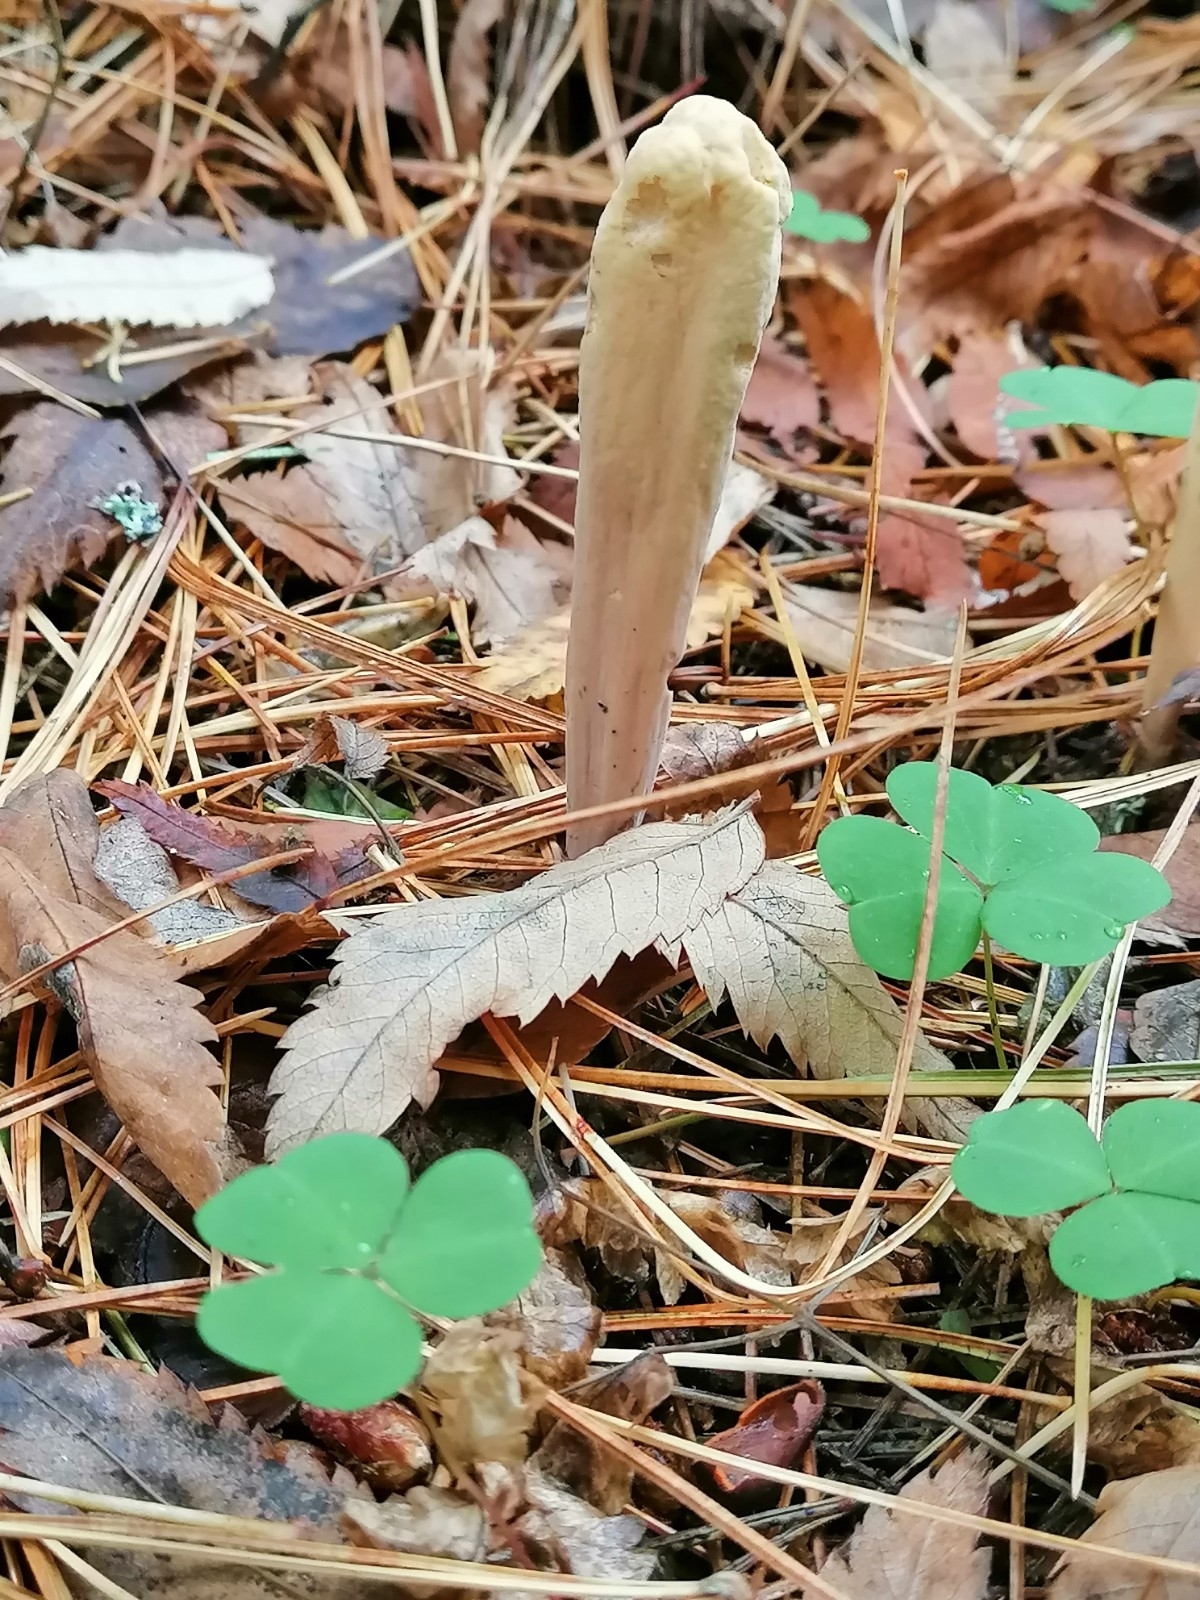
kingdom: Fungi
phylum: Basidiomycota
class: Agaricomycetes
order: Gomphales
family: Clavariadelphaceae
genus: Clavariadelphus
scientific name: Clavariadelphus pistillaris
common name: Giant club
